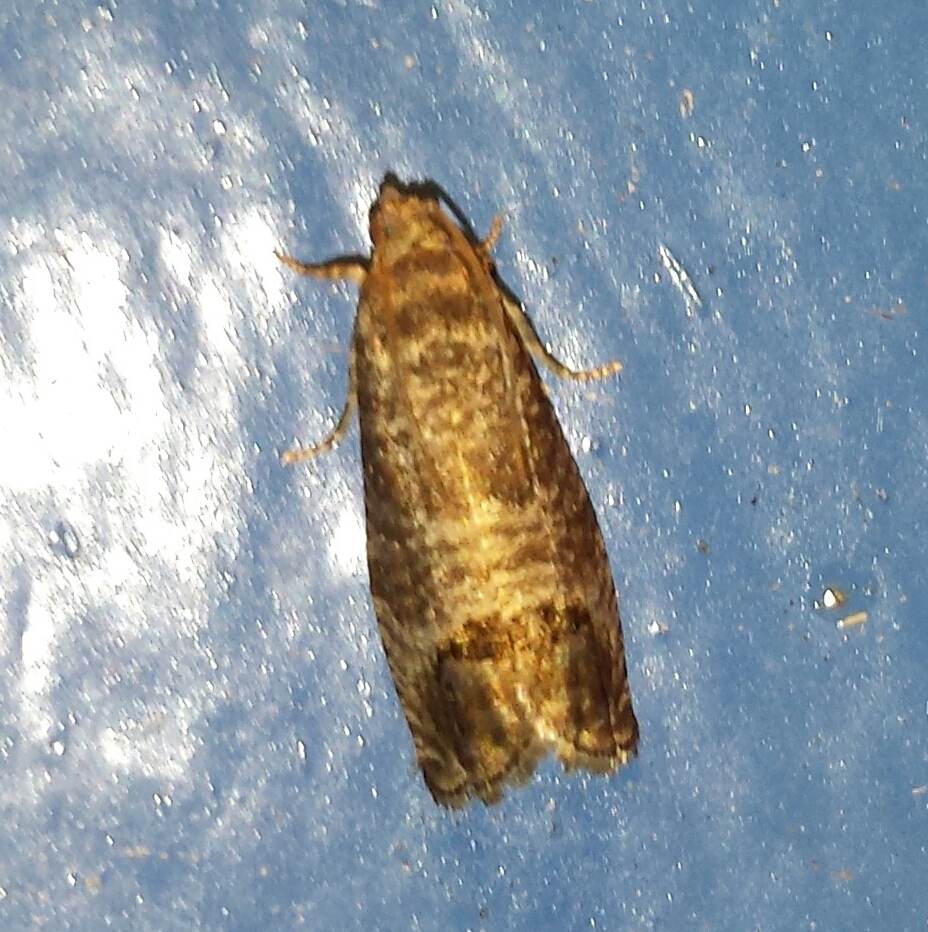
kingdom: Animalia
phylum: Arthropoda
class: Insecta
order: Lepidoptera
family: Tortricidae
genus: Cydia
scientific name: Cydia pomonella
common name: Codling moth
